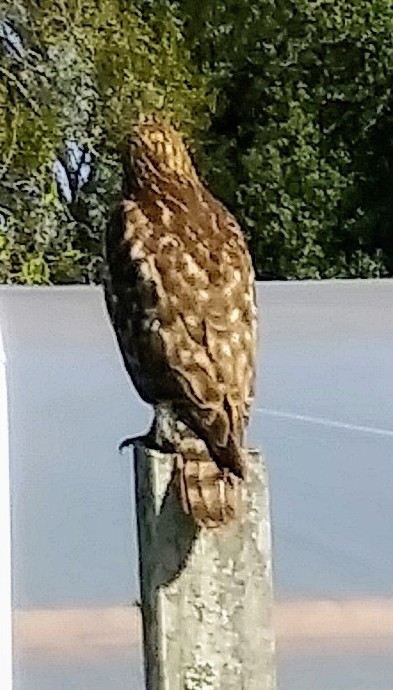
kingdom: Animalia
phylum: Chordata
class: Aves
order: Accipitriformes
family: Accipitridae
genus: Buteo
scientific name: Buteo lineatus
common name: Red-shouldered hawk
